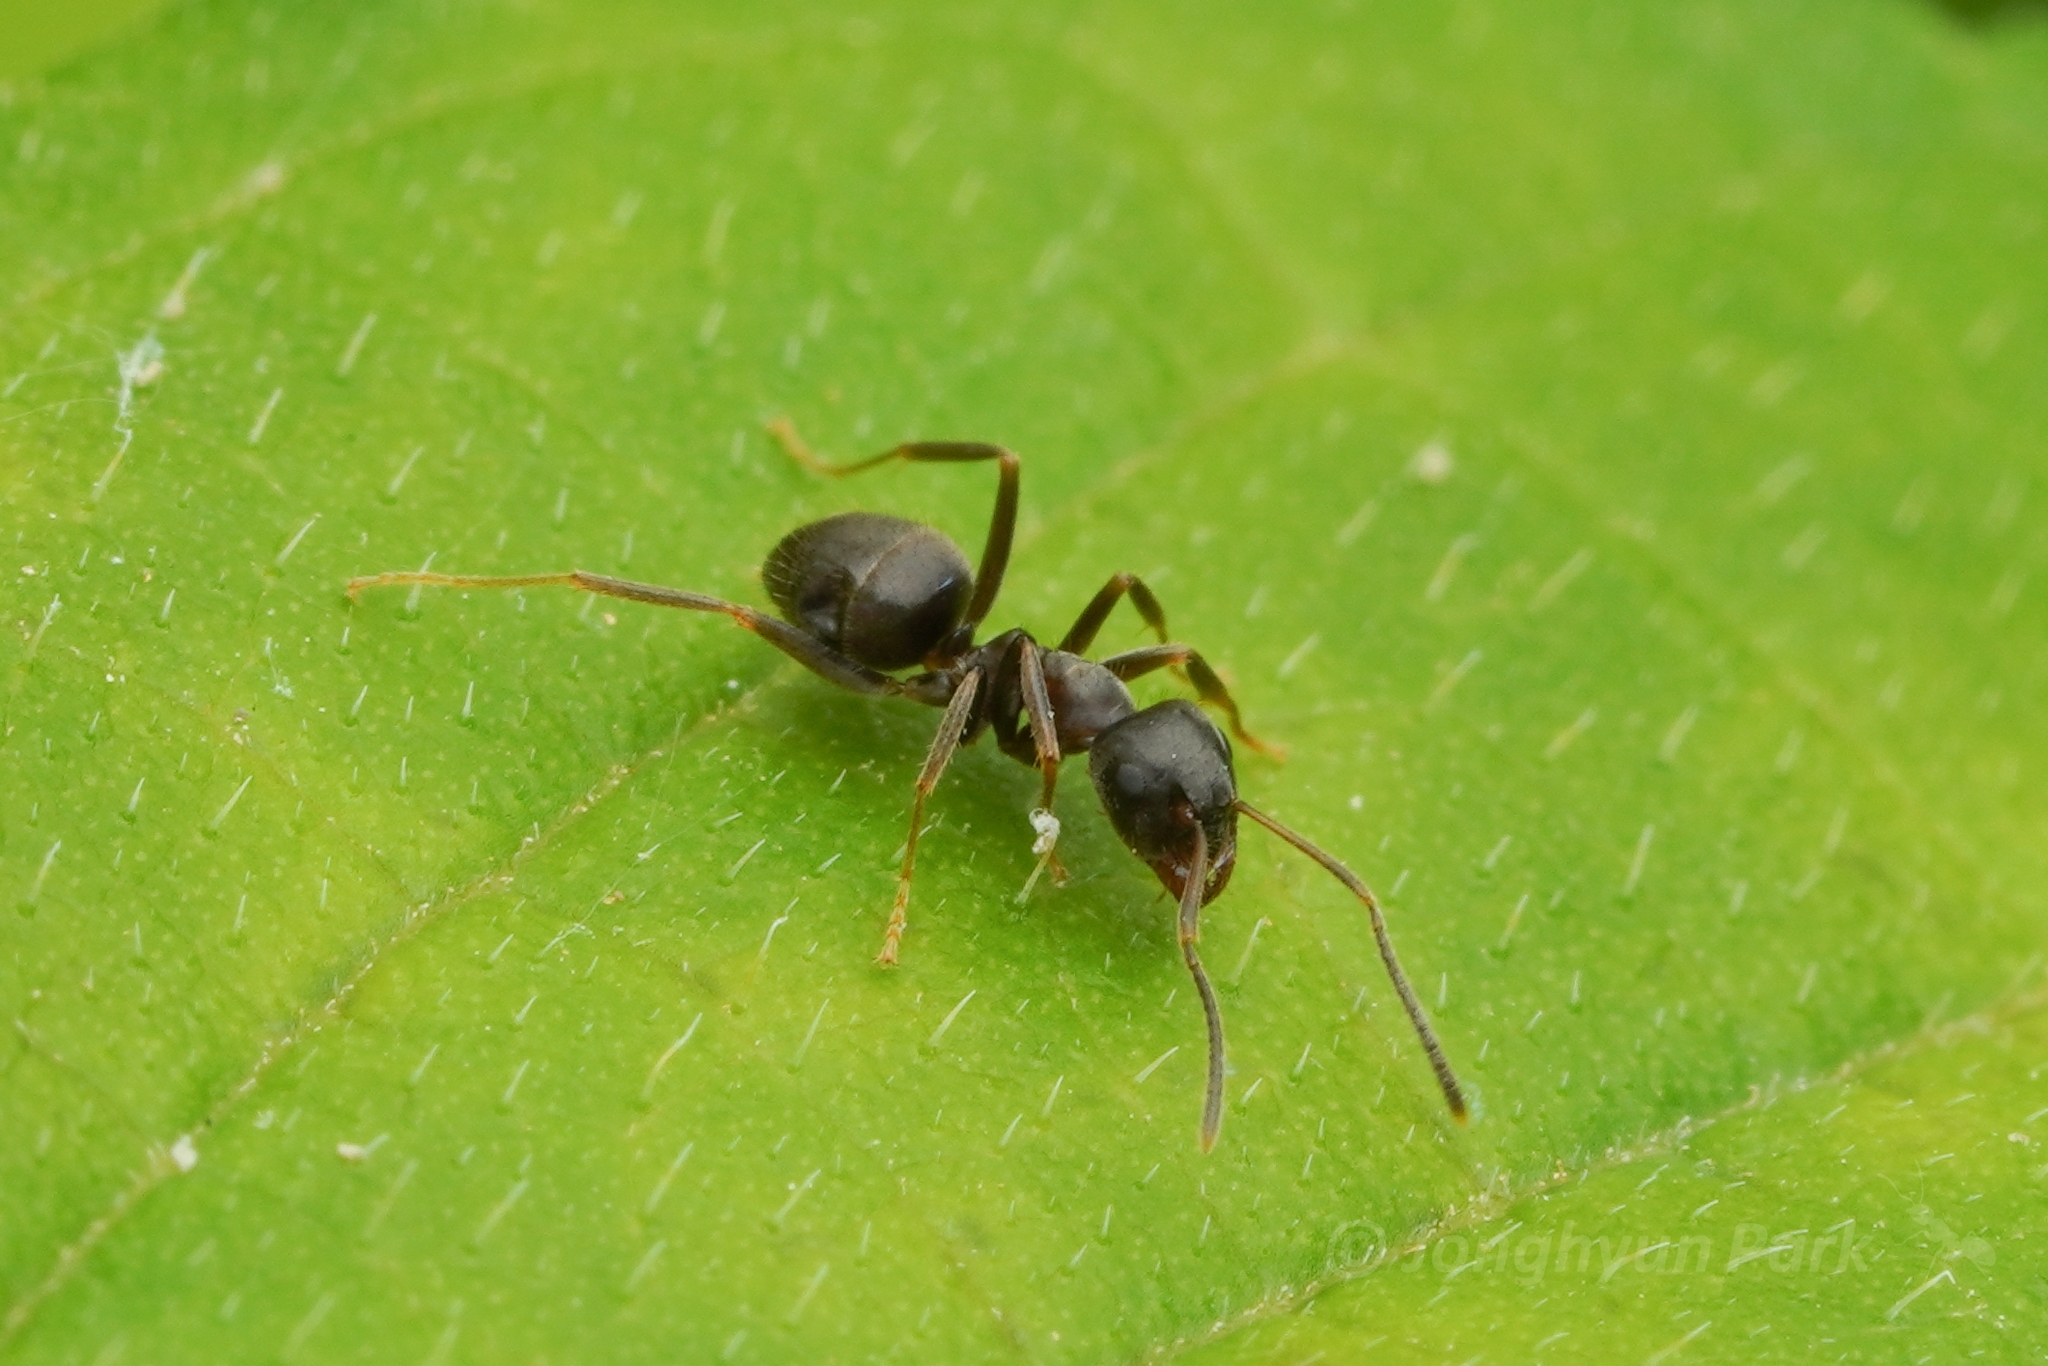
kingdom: Animalia
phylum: Arthropoda
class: Insecta
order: Hymenoptera
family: Formicidae
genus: Lasius
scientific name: Lasius japonicus
